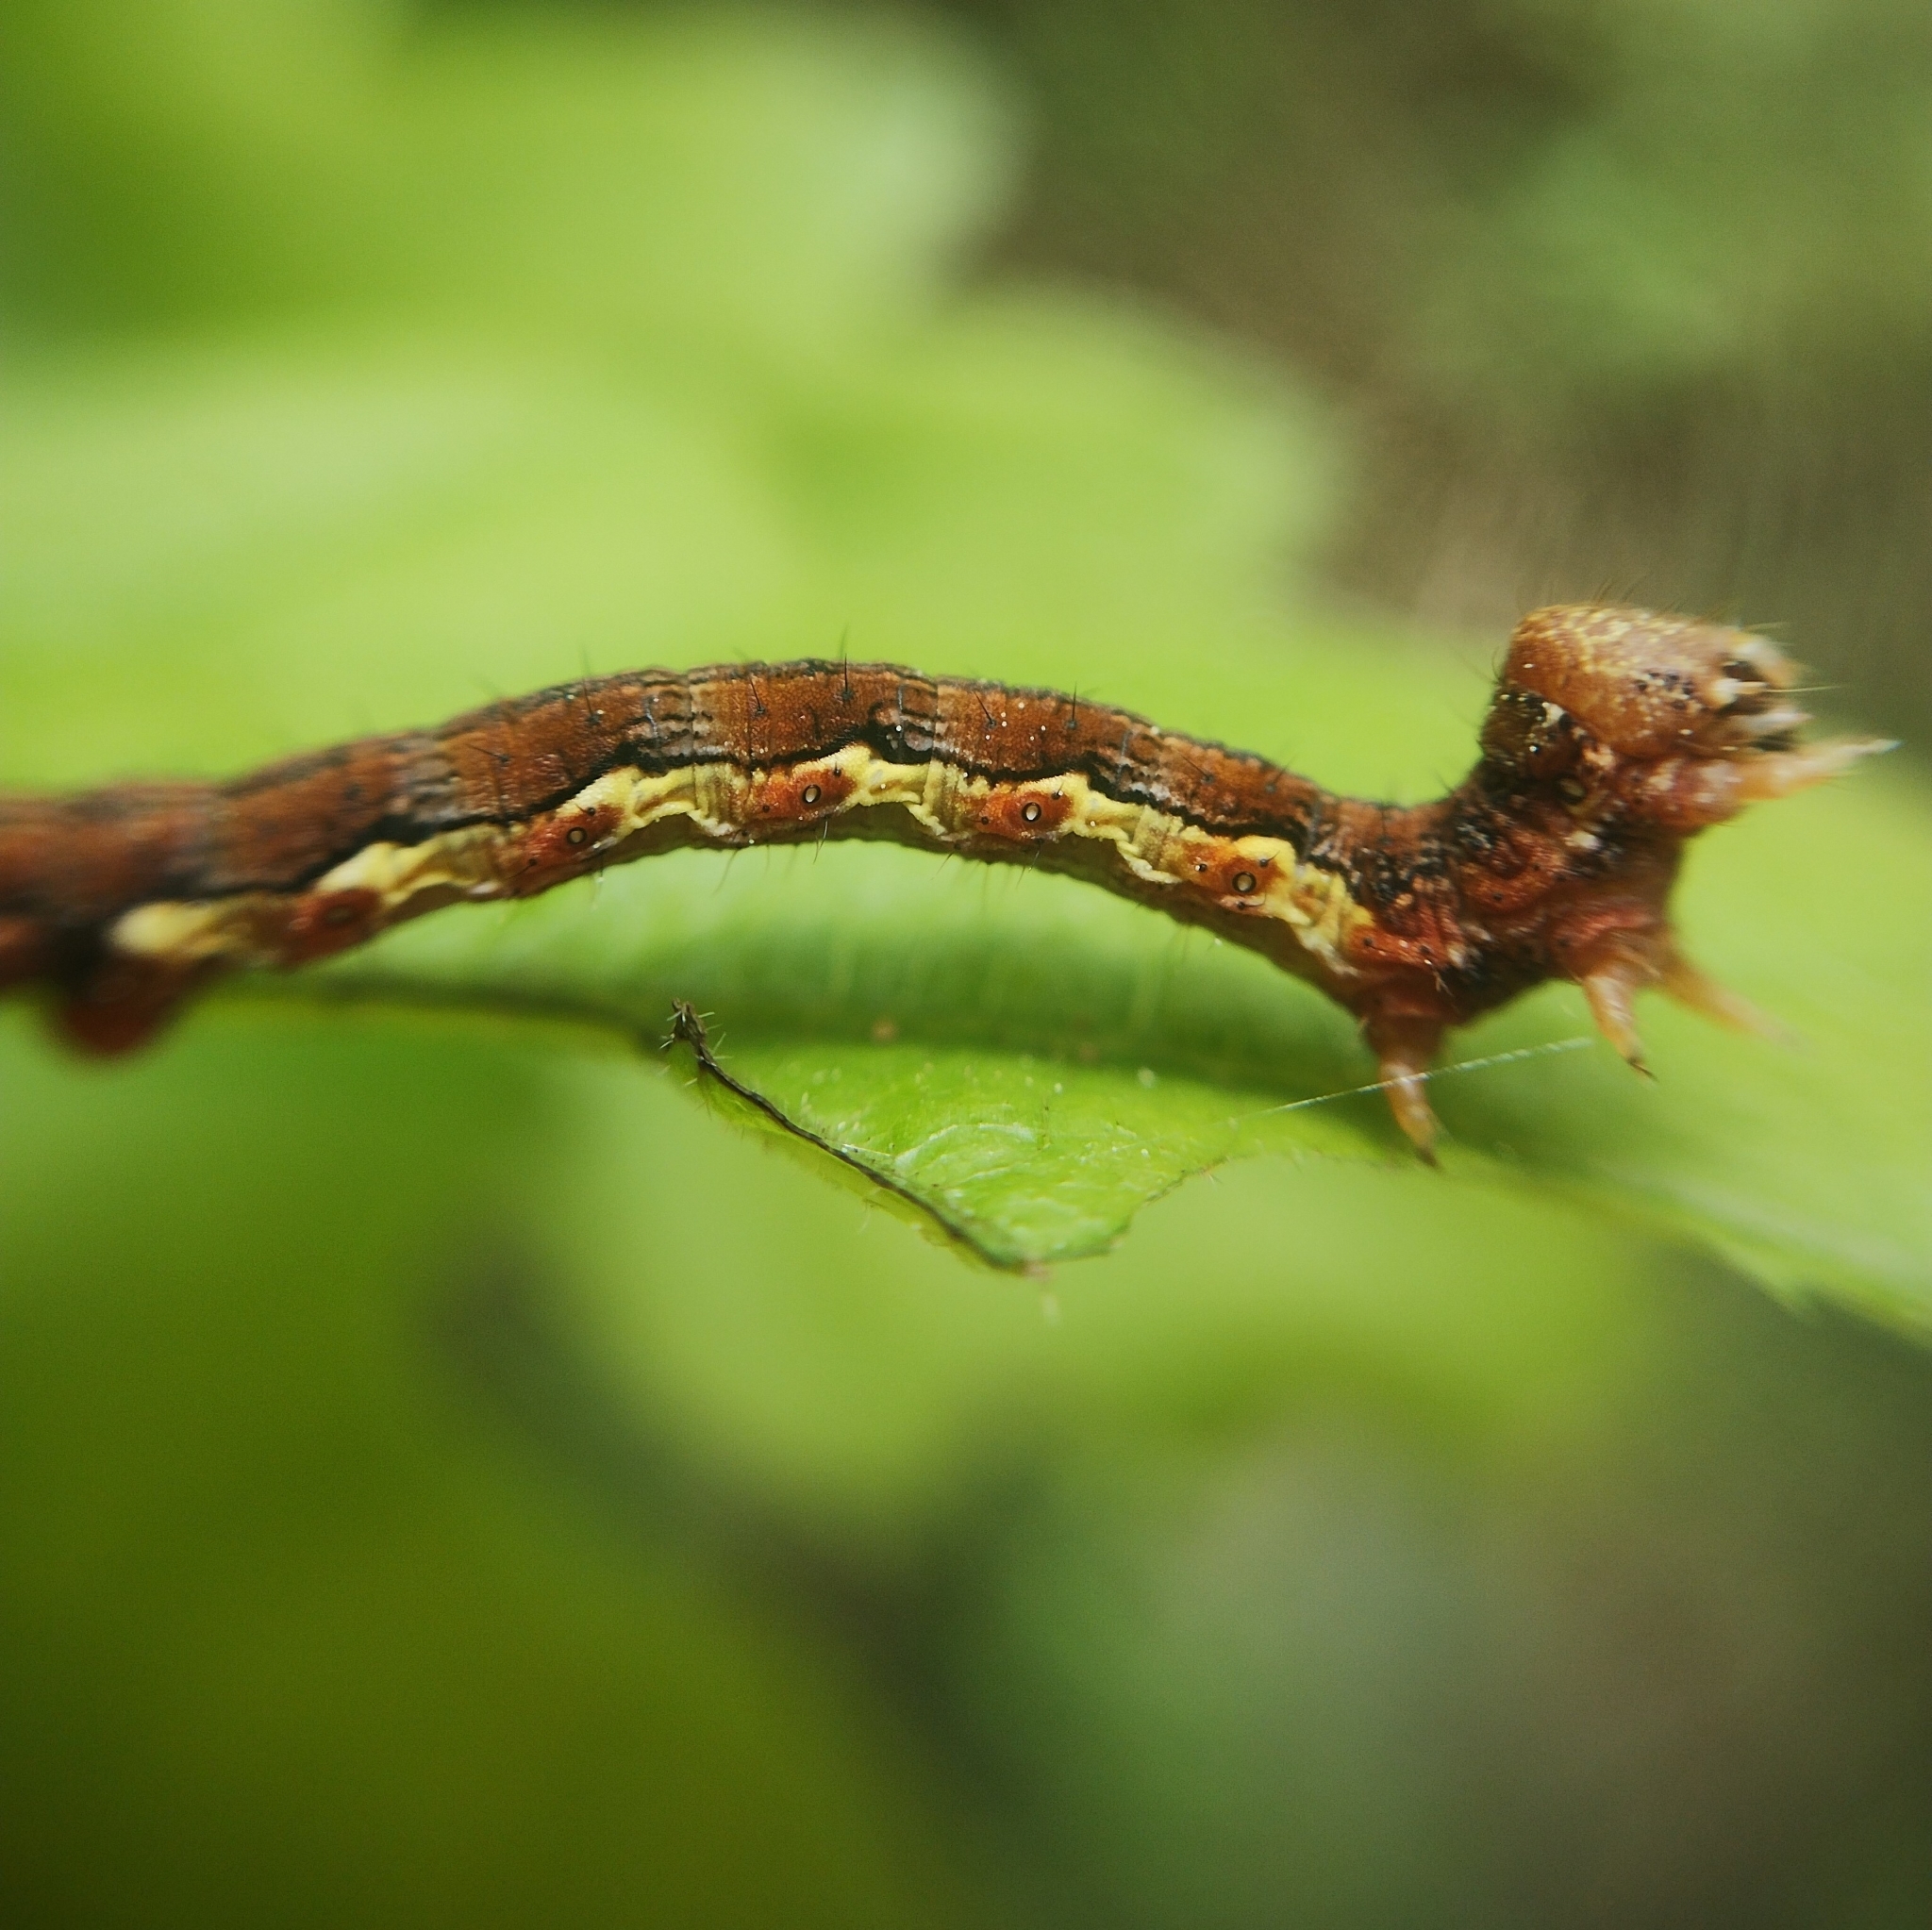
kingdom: Animalia
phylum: Arthropoda
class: Insecta
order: Lepidoptera
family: Geometridae
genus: Erannis
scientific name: Erannis defoliaria
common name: Mottled umber
